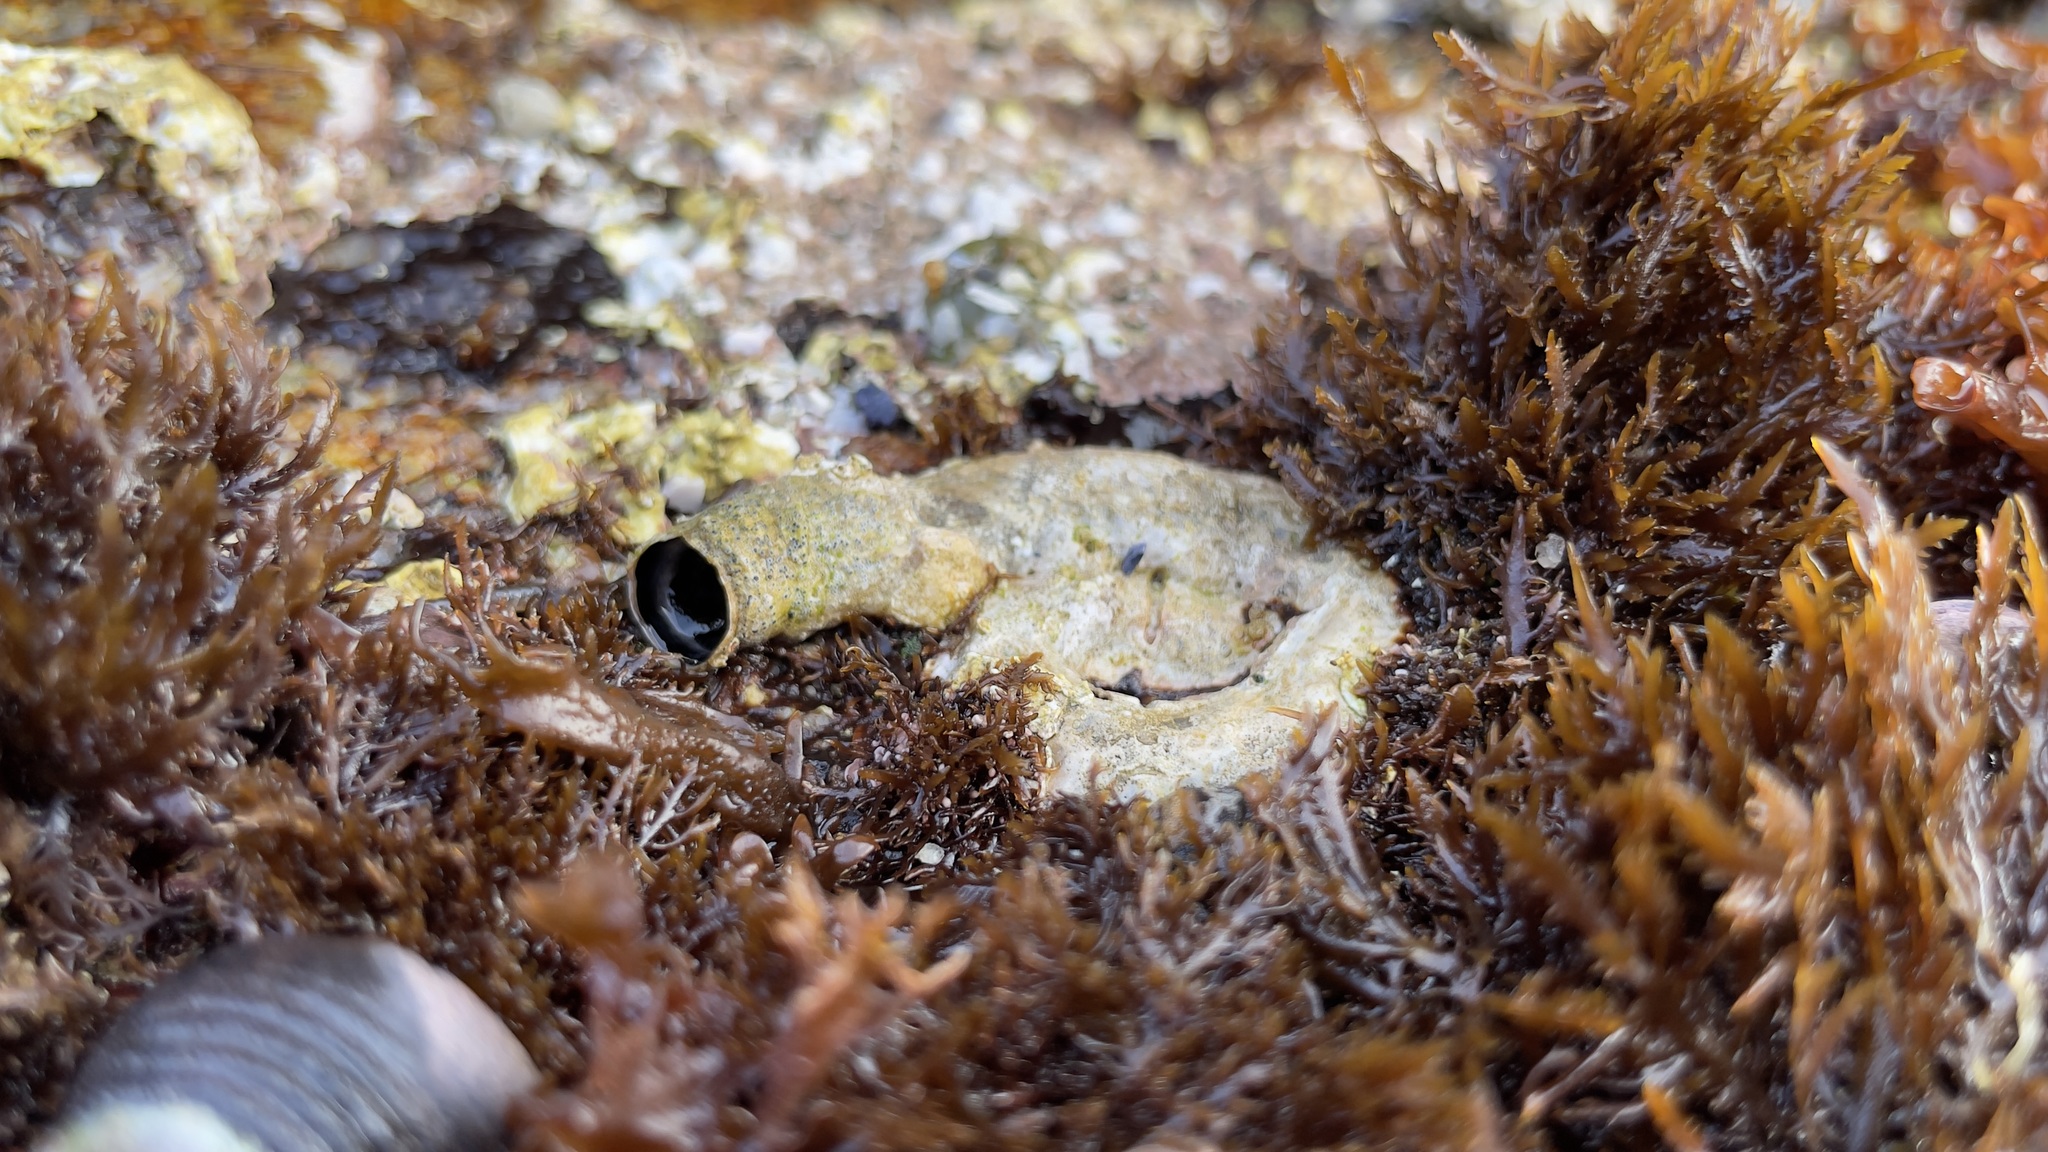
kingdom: Animalia
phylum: Mollusca
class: Gastropoda
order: Littorinimorpha
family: Vermetidae
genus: Thylacodes
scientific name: Thylacodes squamigerus
